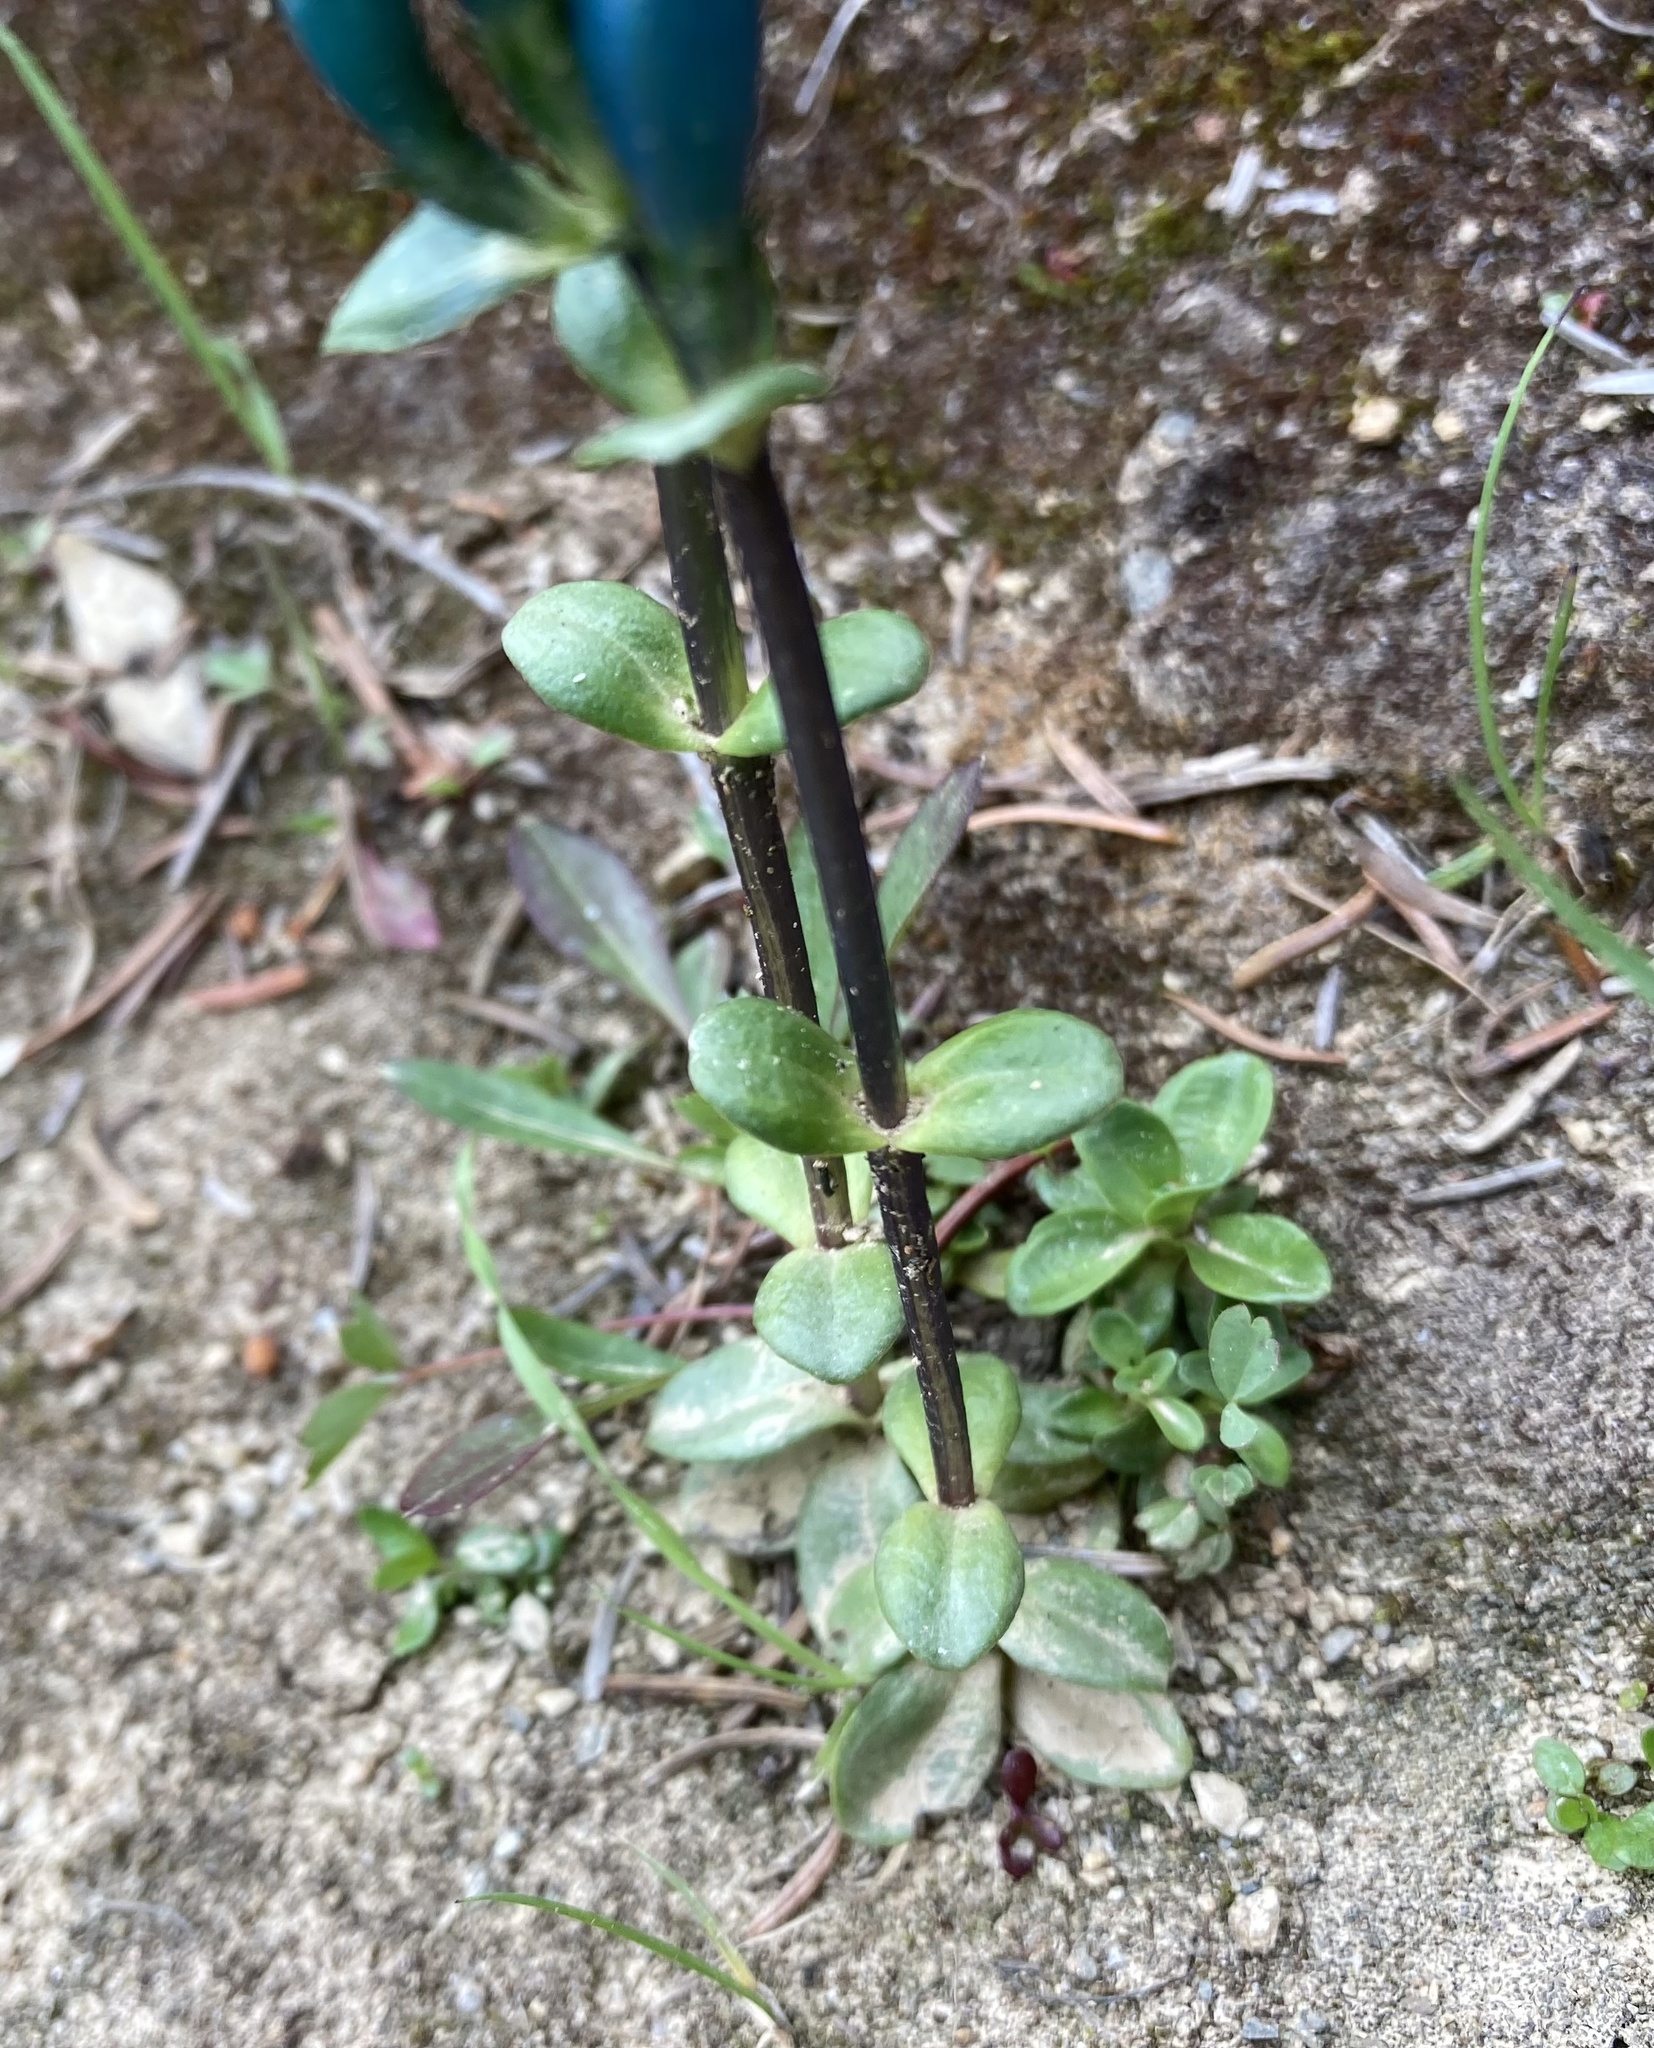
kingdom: Plantae
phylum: Tracheophyta
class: Magnoliopsida
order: Gentianales
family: Gentianaceae
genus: Gentiana
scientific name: Gentiana glauca
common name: Alpine gentian
